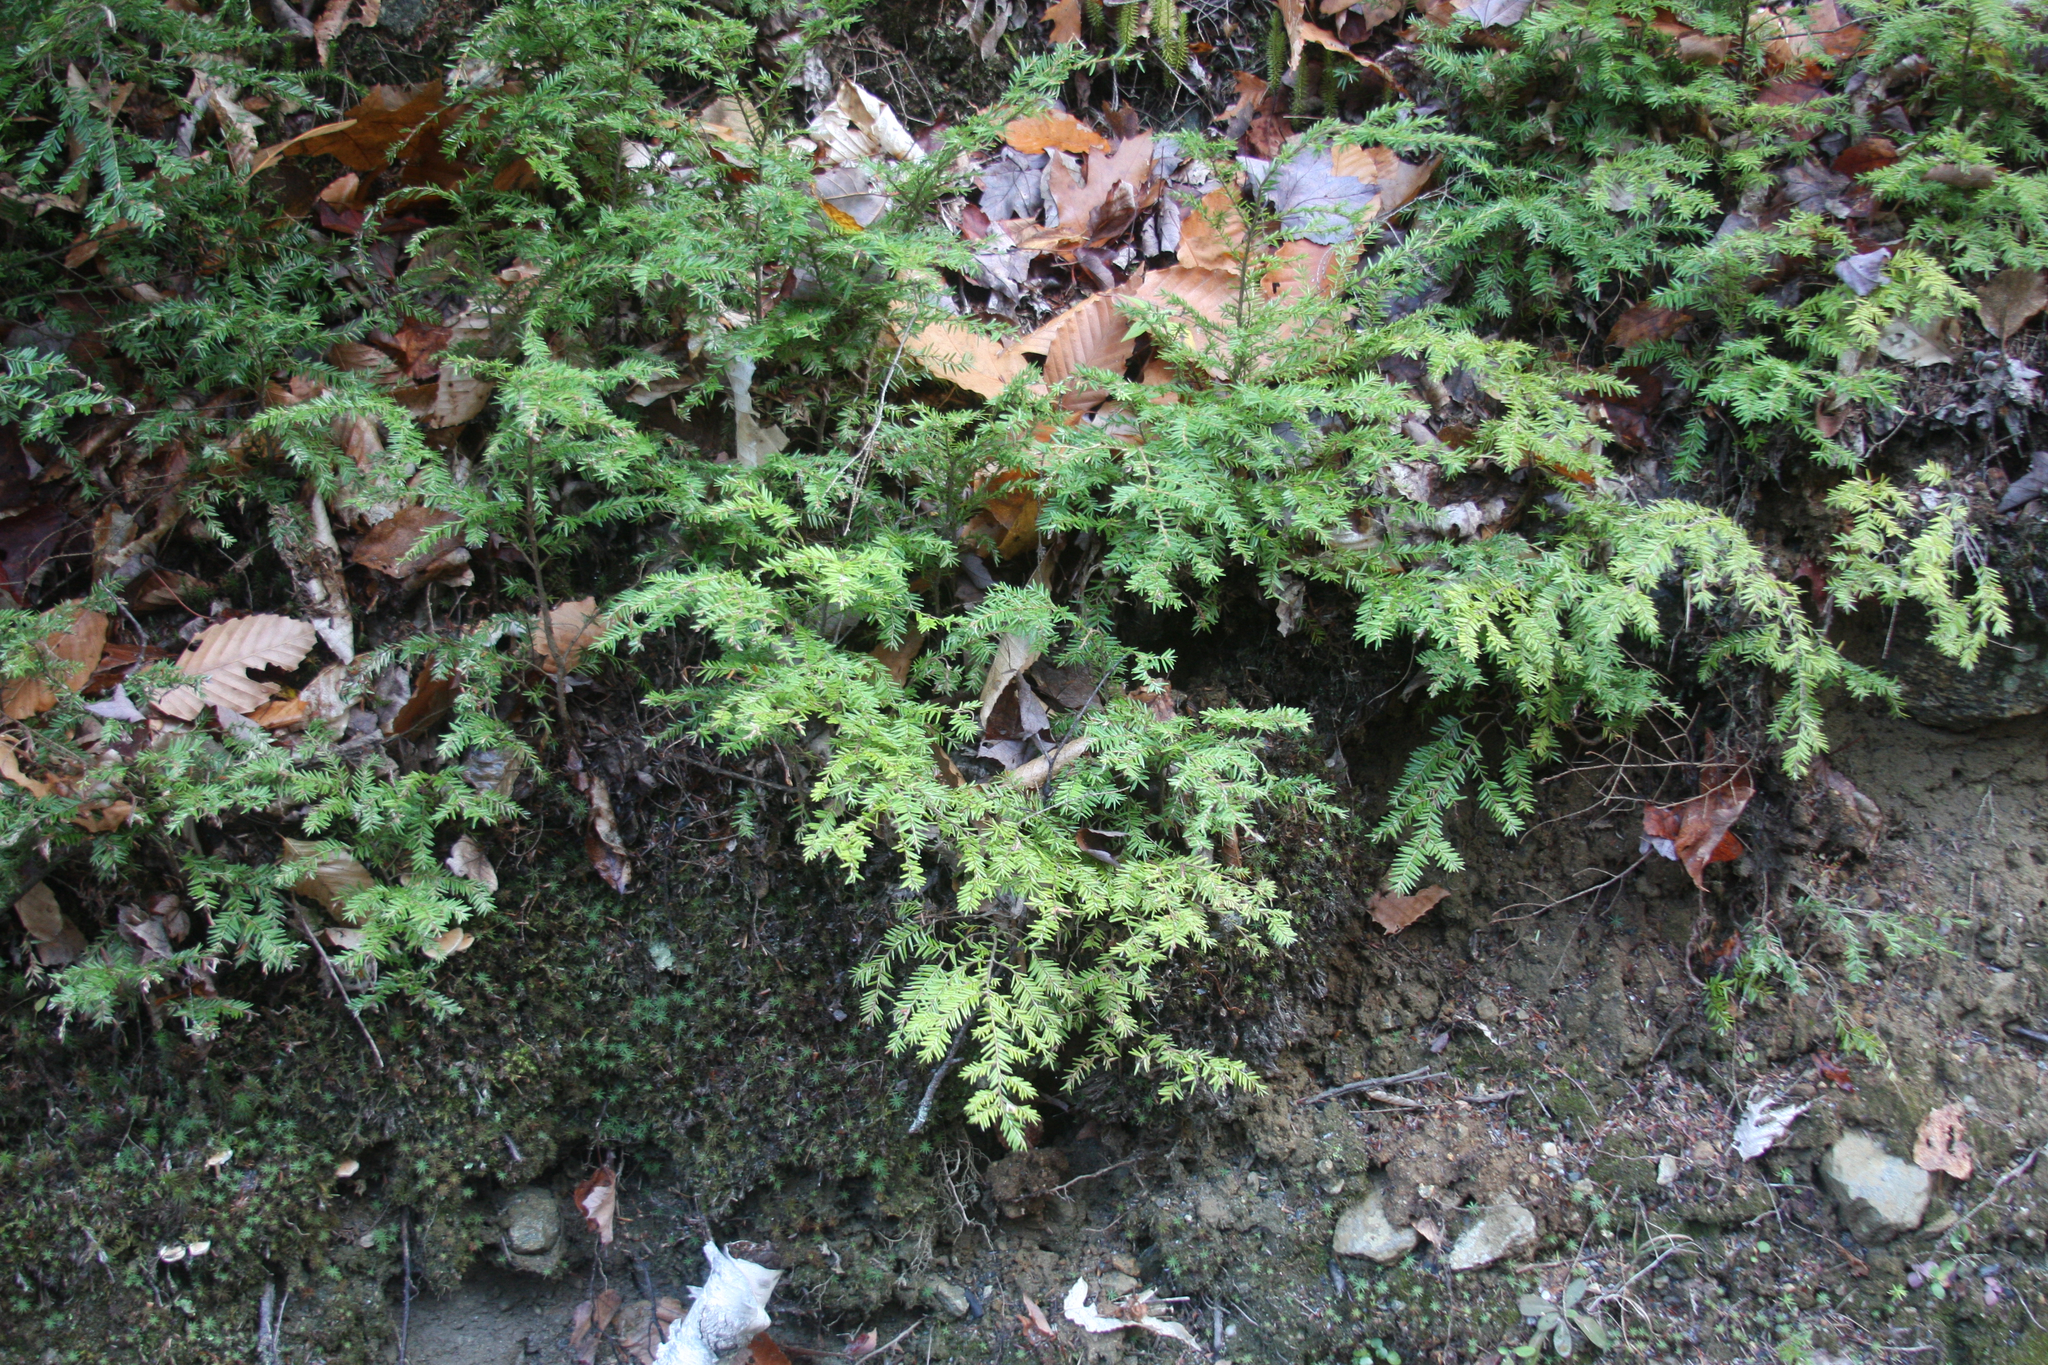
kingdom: Plantae
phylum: Tracheophyta
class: Pinopsida
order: Pinales
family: Pinaceae
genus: Tsuga
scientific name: Tsuga canadensis
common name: Eastern hemlock
